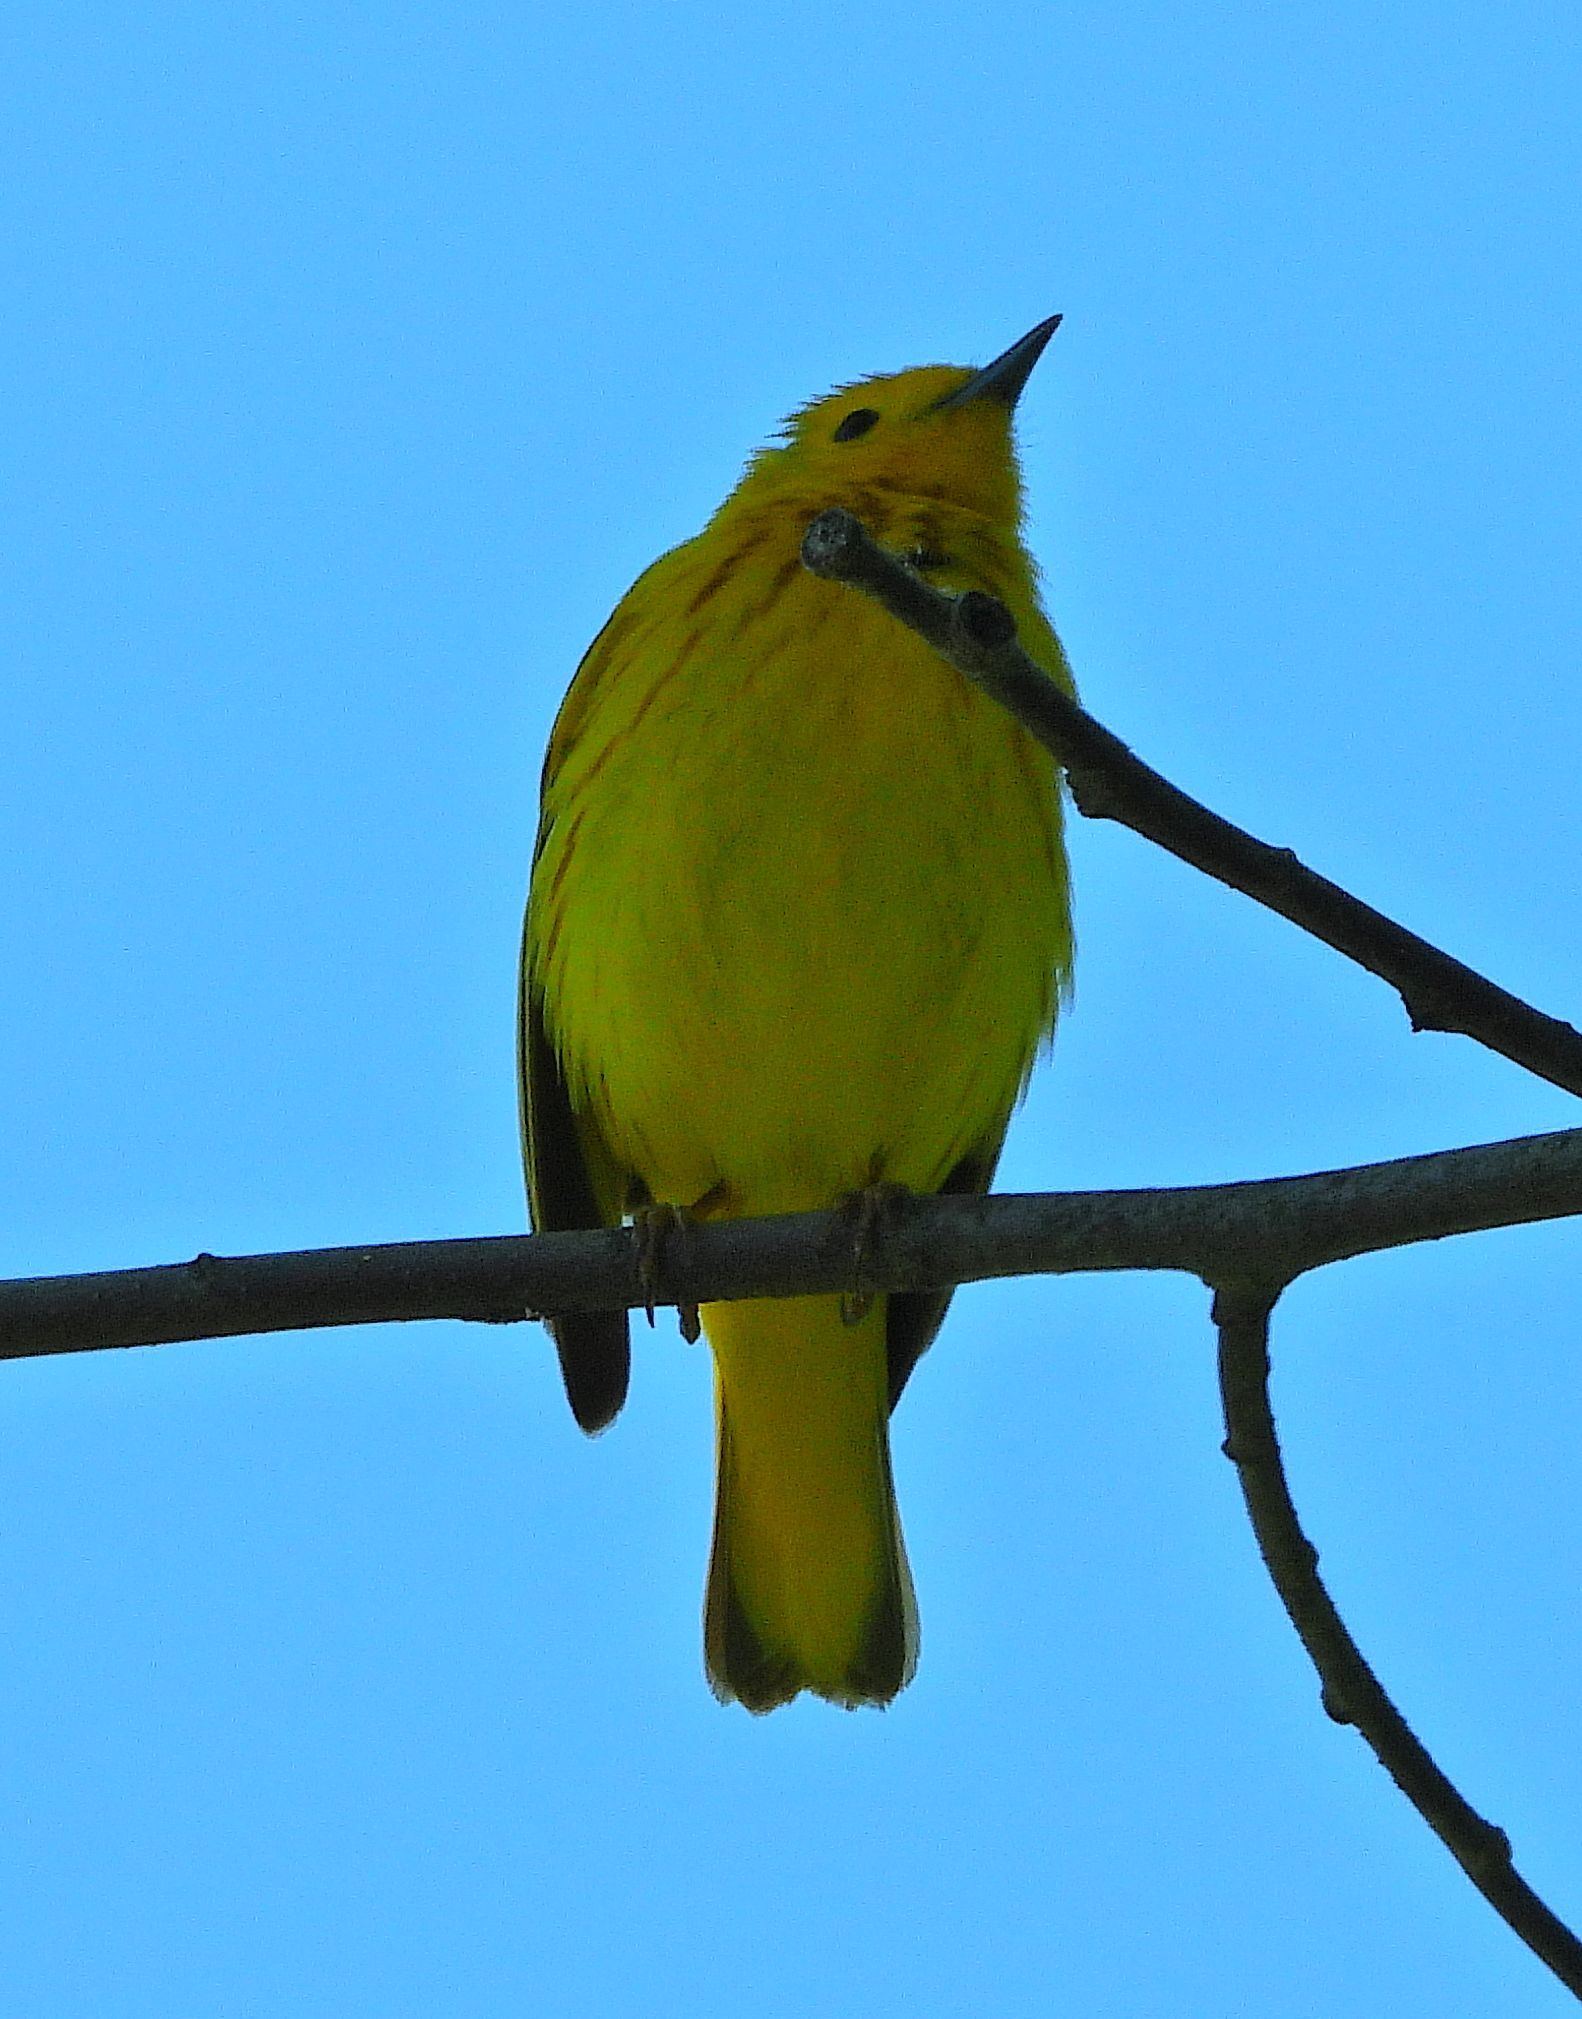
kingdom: Animalia
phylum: Chordata
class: Aves
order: Passeriformes
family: Parulidae
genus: Setophaga
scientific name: Setophaga petechia
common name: Yellow warbler
